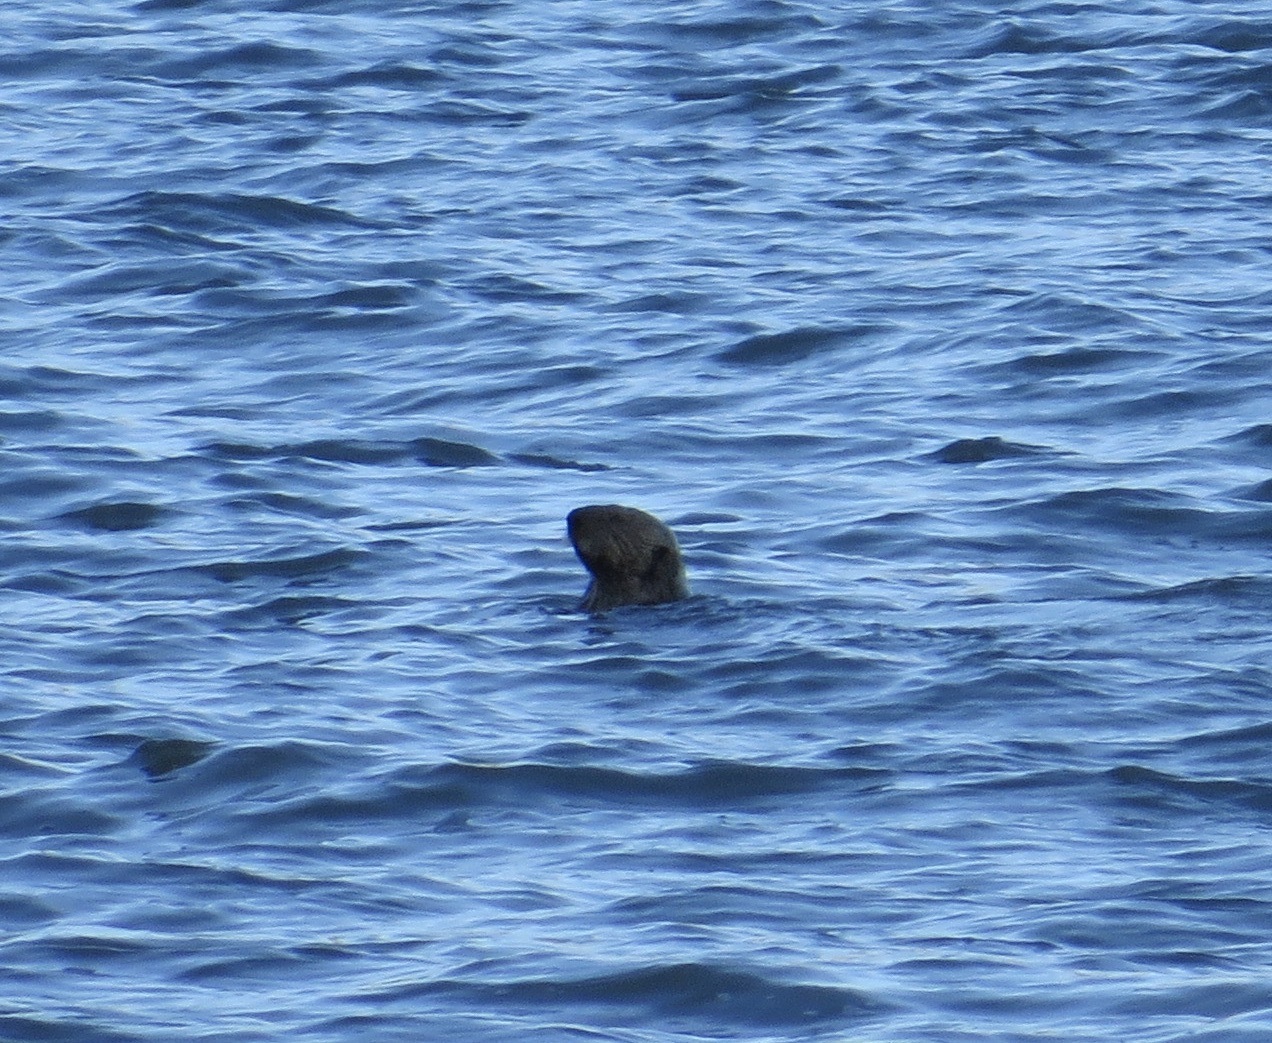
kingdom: Animalia
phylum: Chordata
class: Mammalia
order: Carnivora
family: Mustelidae
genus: Enhydra
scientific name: Enhydra lutris
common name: Sea otter
